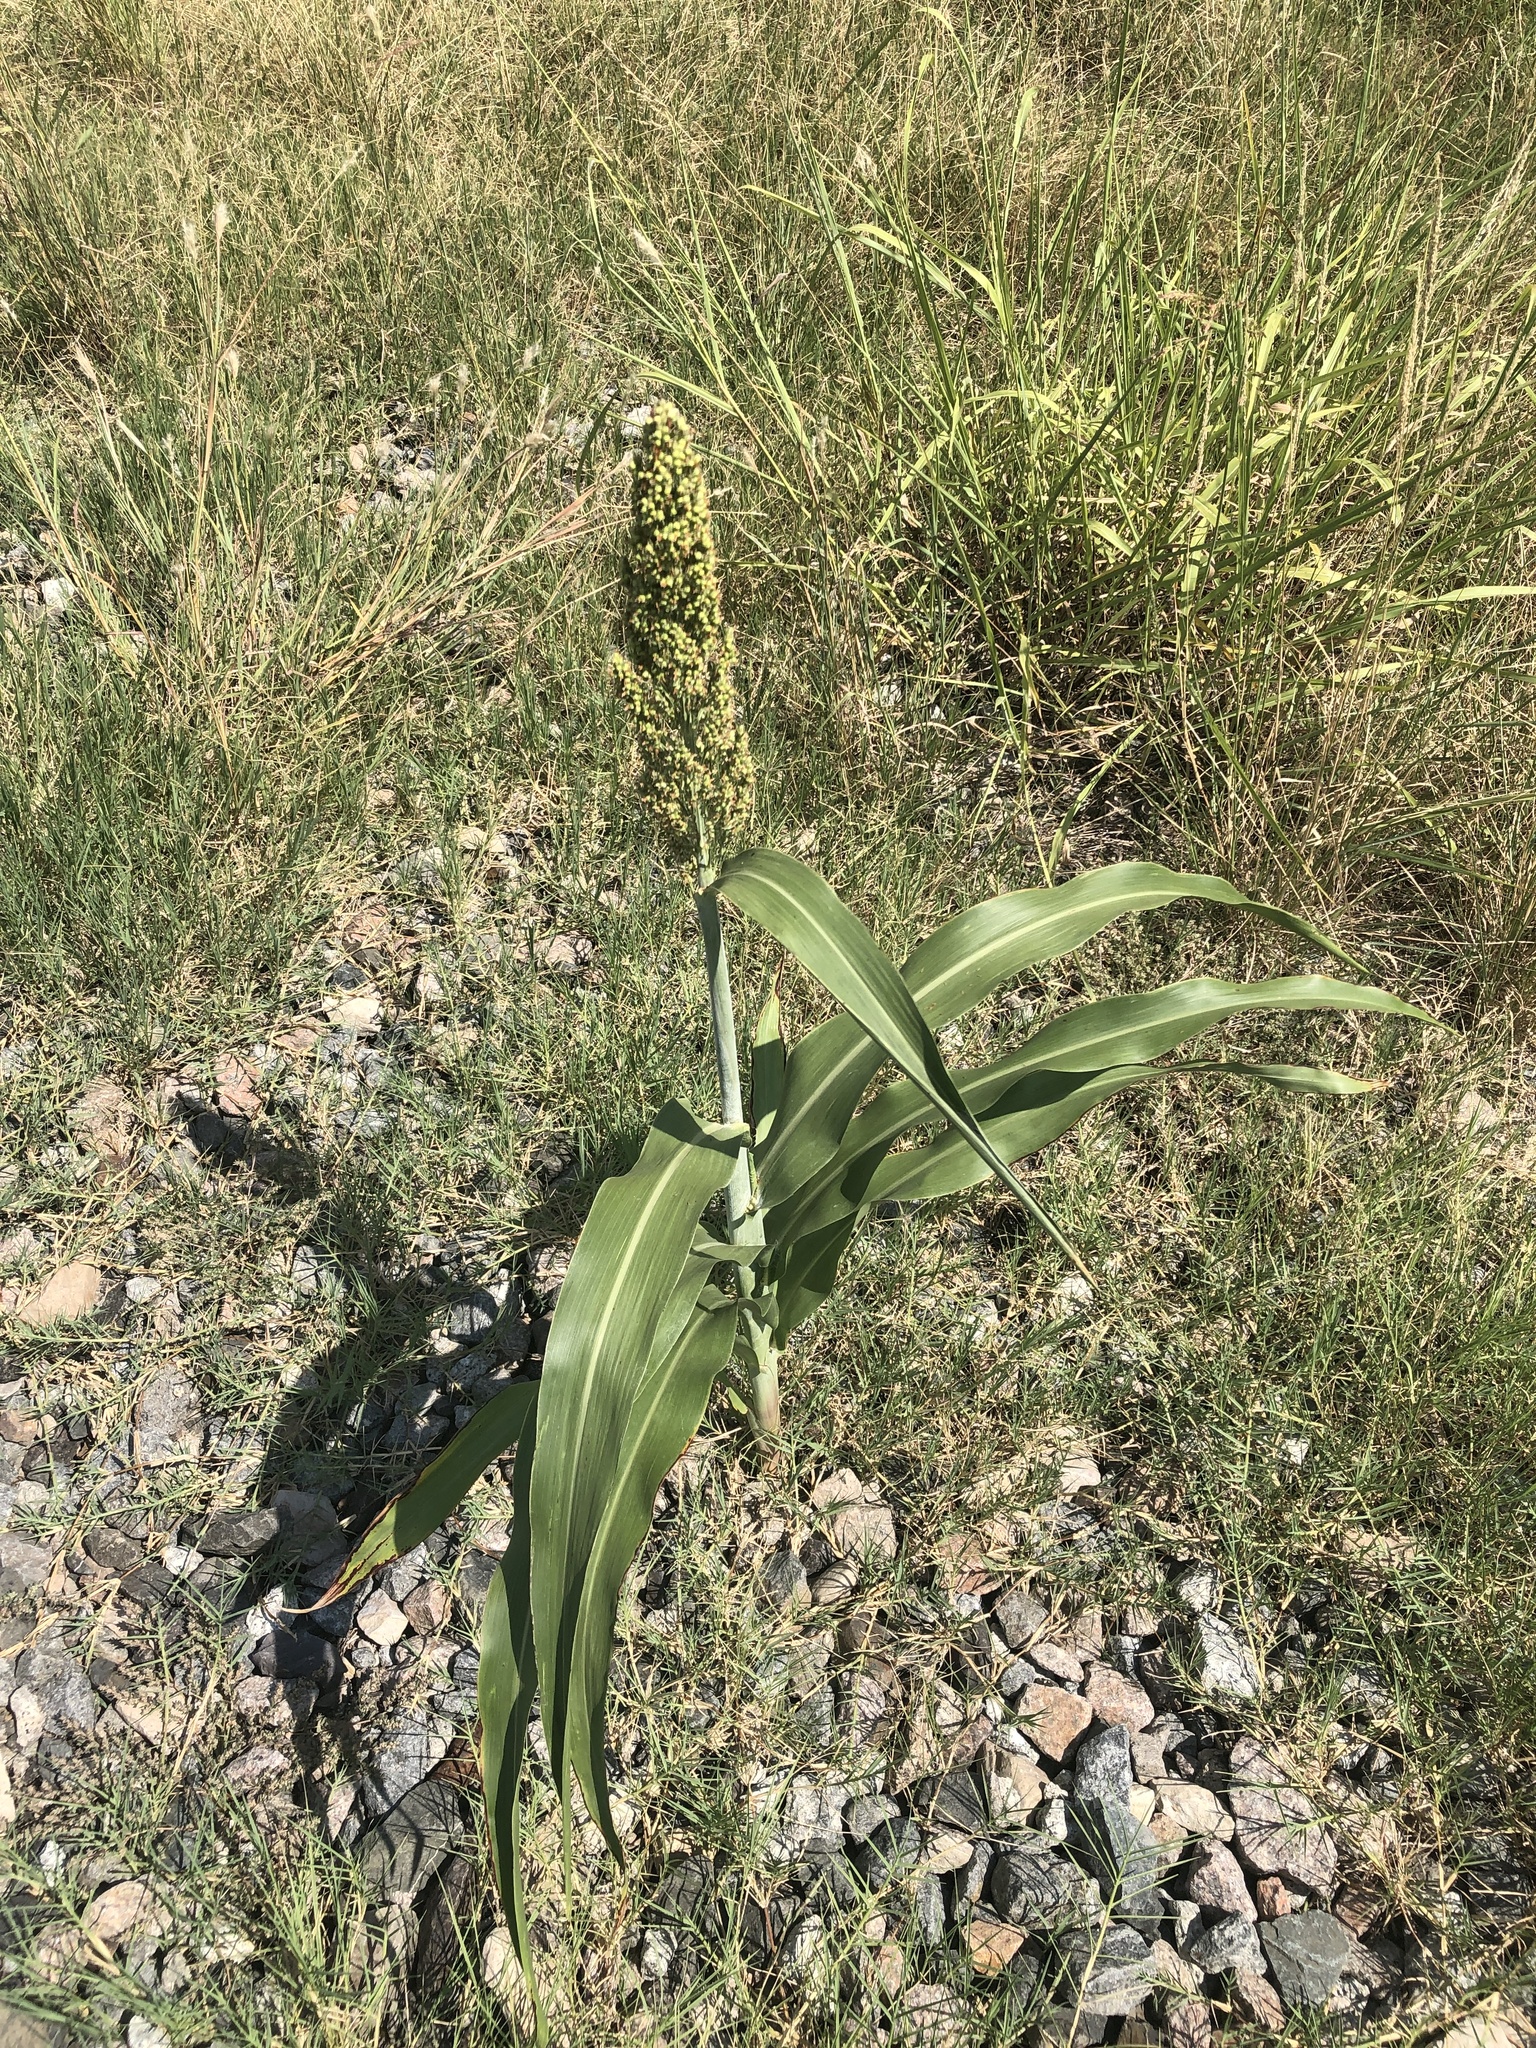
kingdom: Plantae
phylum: Tracheophyta
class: Liliopsida
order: Poales
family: Poaceae
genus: Sorghum
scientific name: Sorghum bicolor
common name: Sorghum
